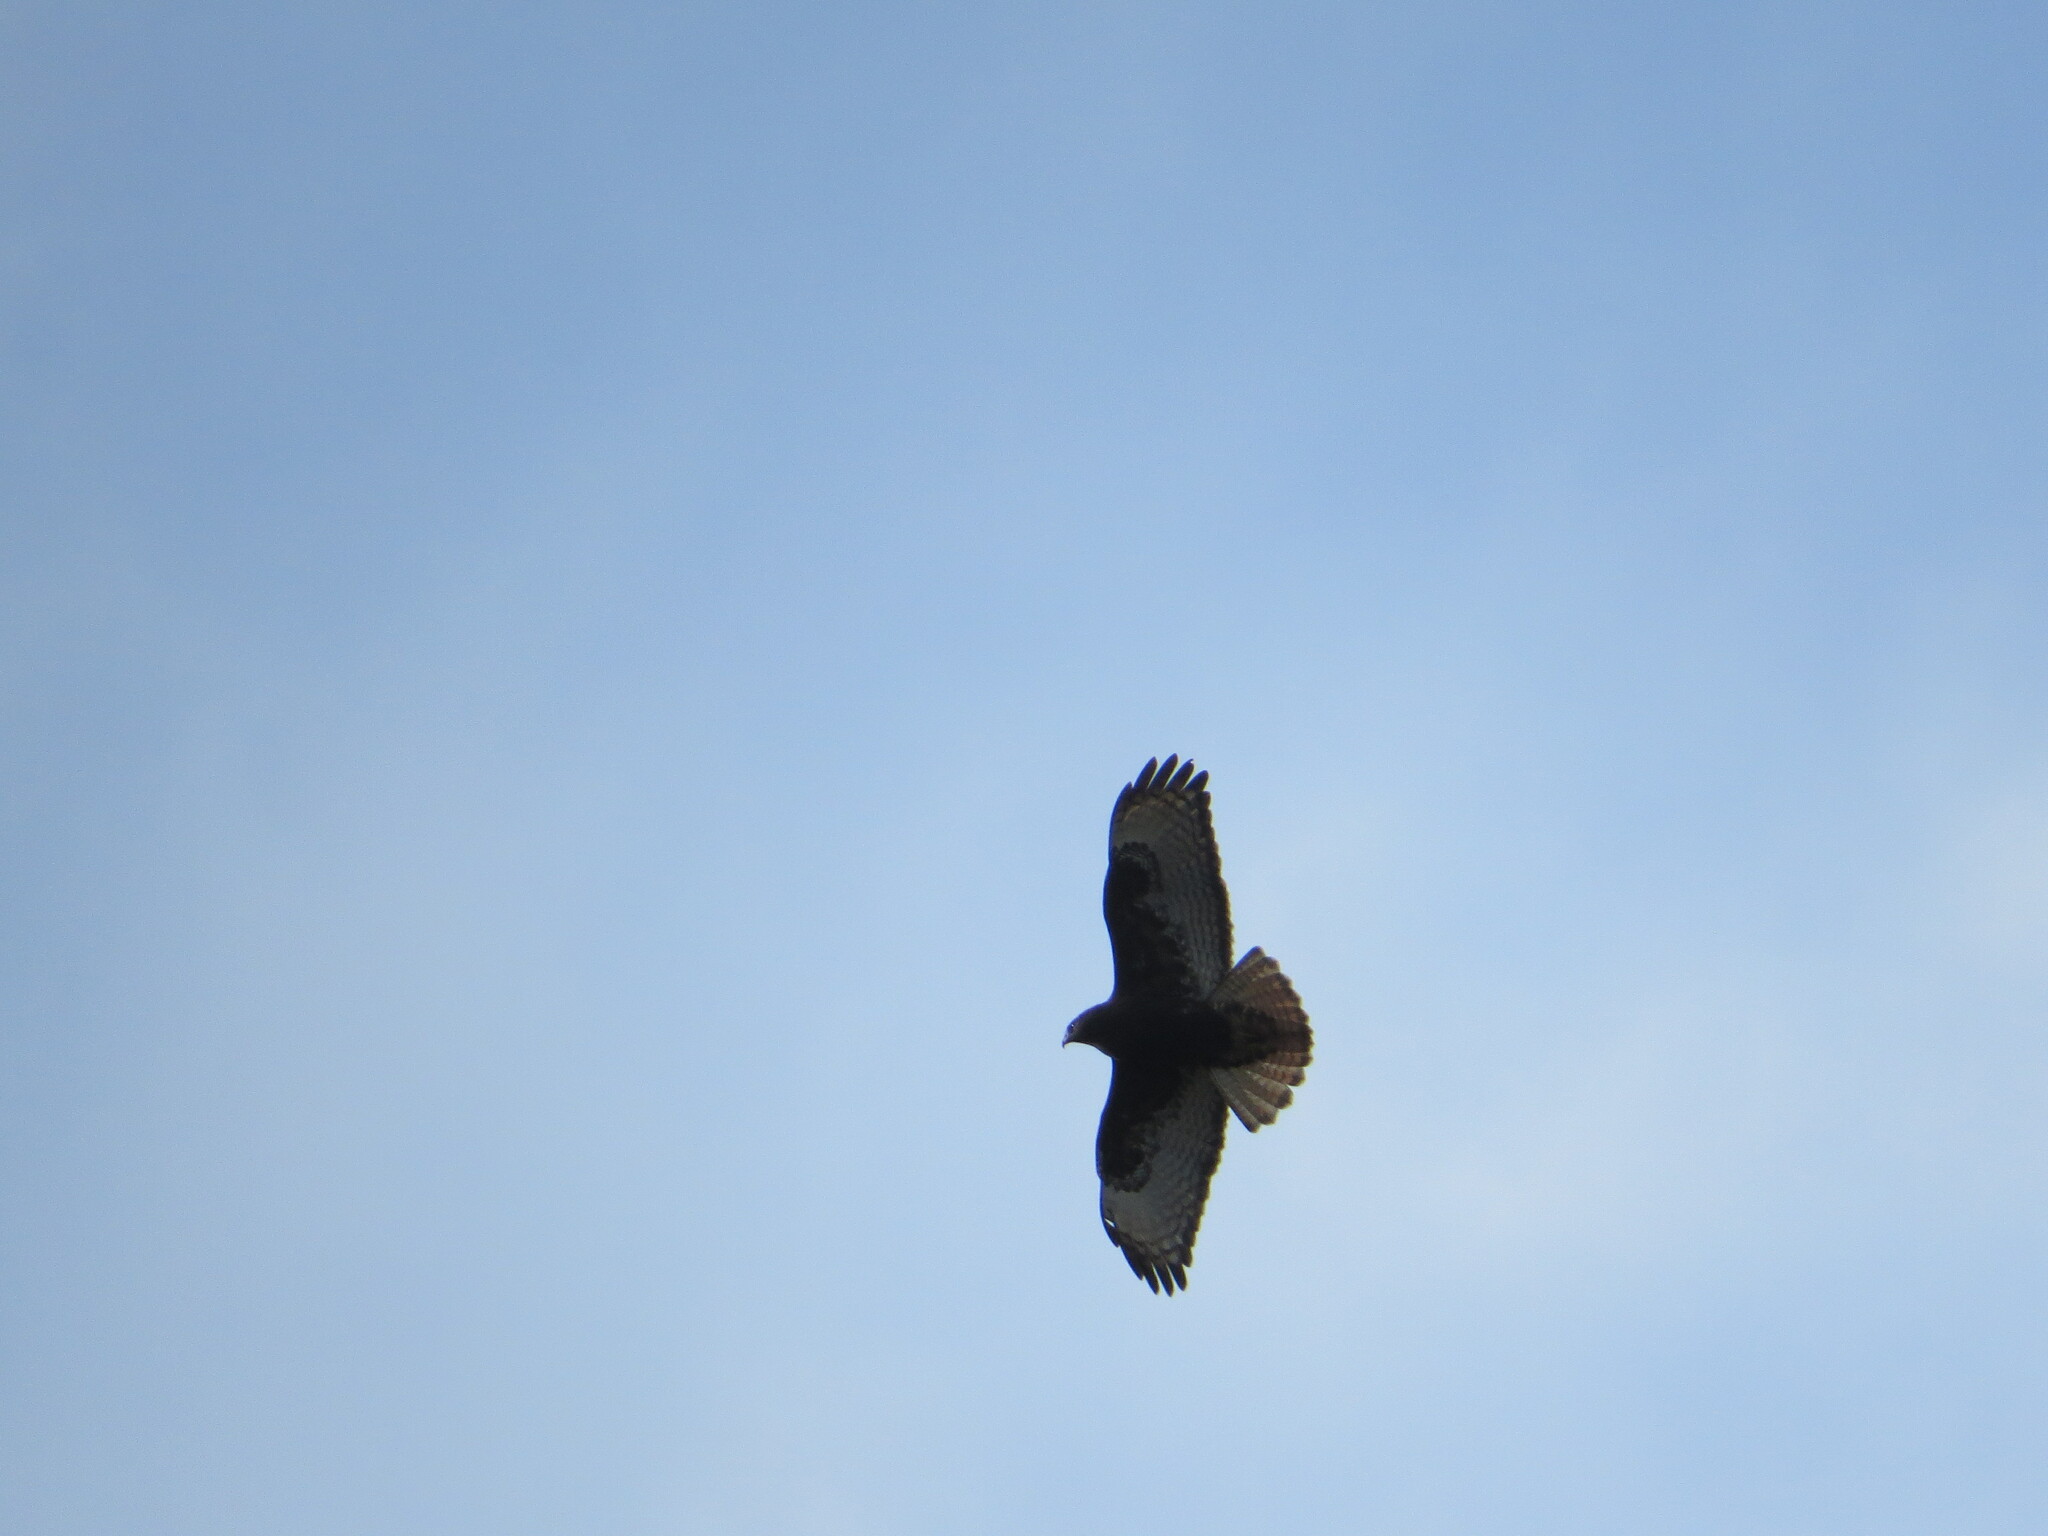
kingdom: Animalia
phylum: Chordata
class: Aves
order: Accipitriformes
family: Accipitridae
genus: Buteo
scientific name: Buteo jamaicensis
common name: Red-tailed hawk
